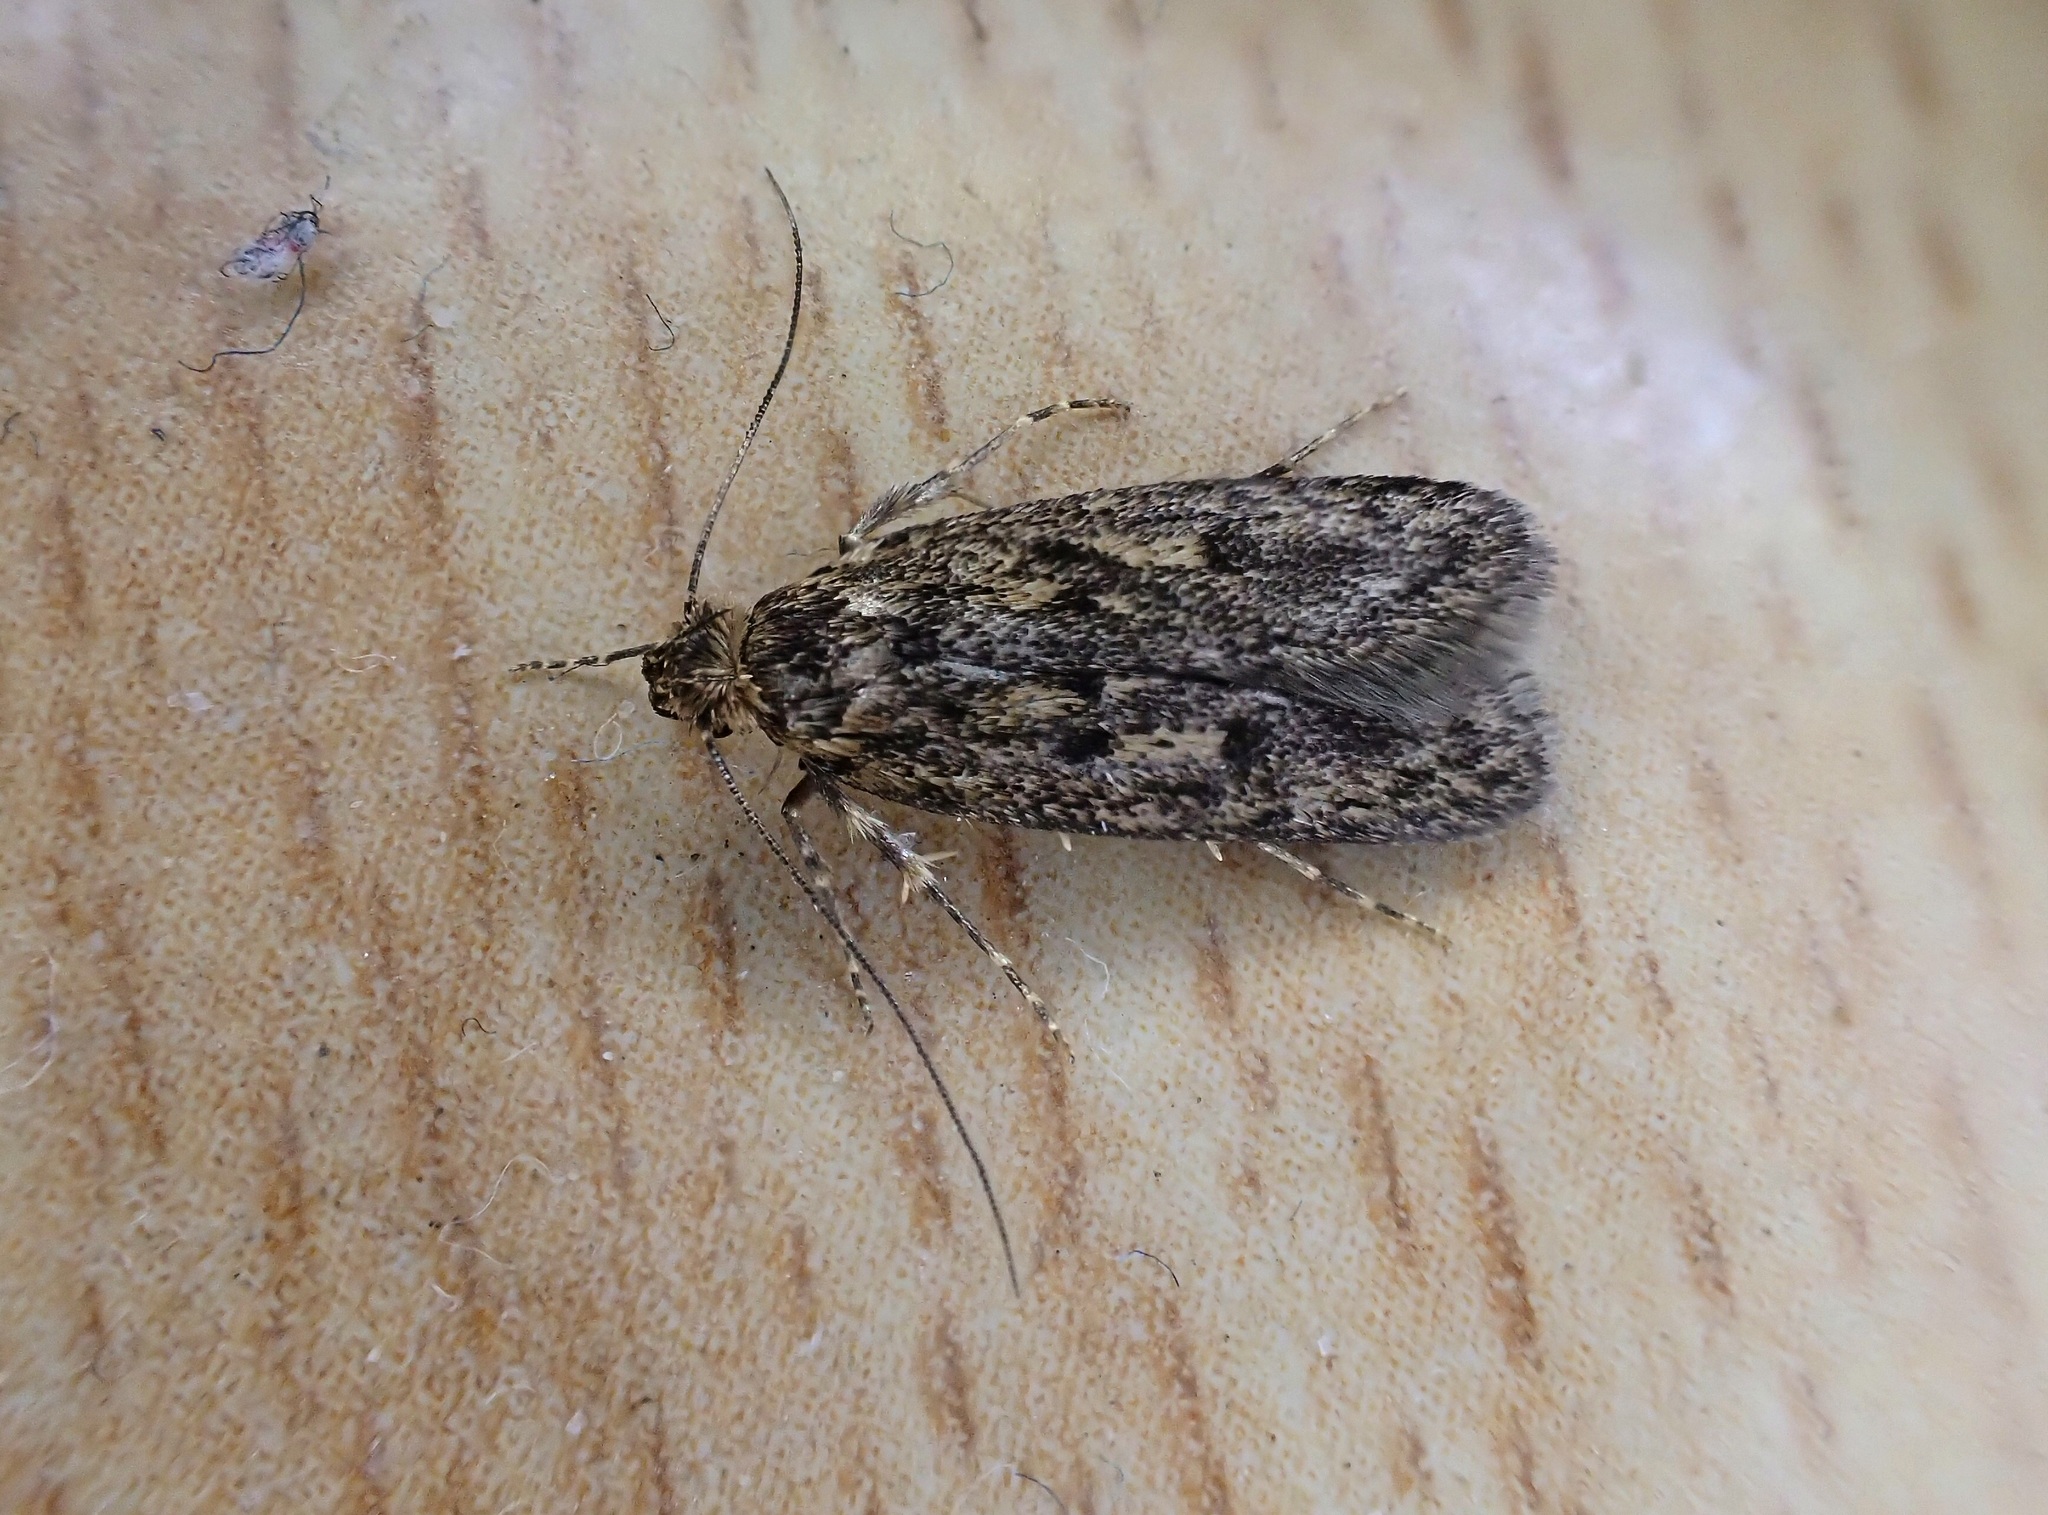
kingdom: Animalia
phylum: Arthropoda
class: Insecta
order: Lepidoptera
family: Oecophoridae
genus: Hofmannophila
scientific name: Hofmannophila pseudospretella
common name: Brown house moth
